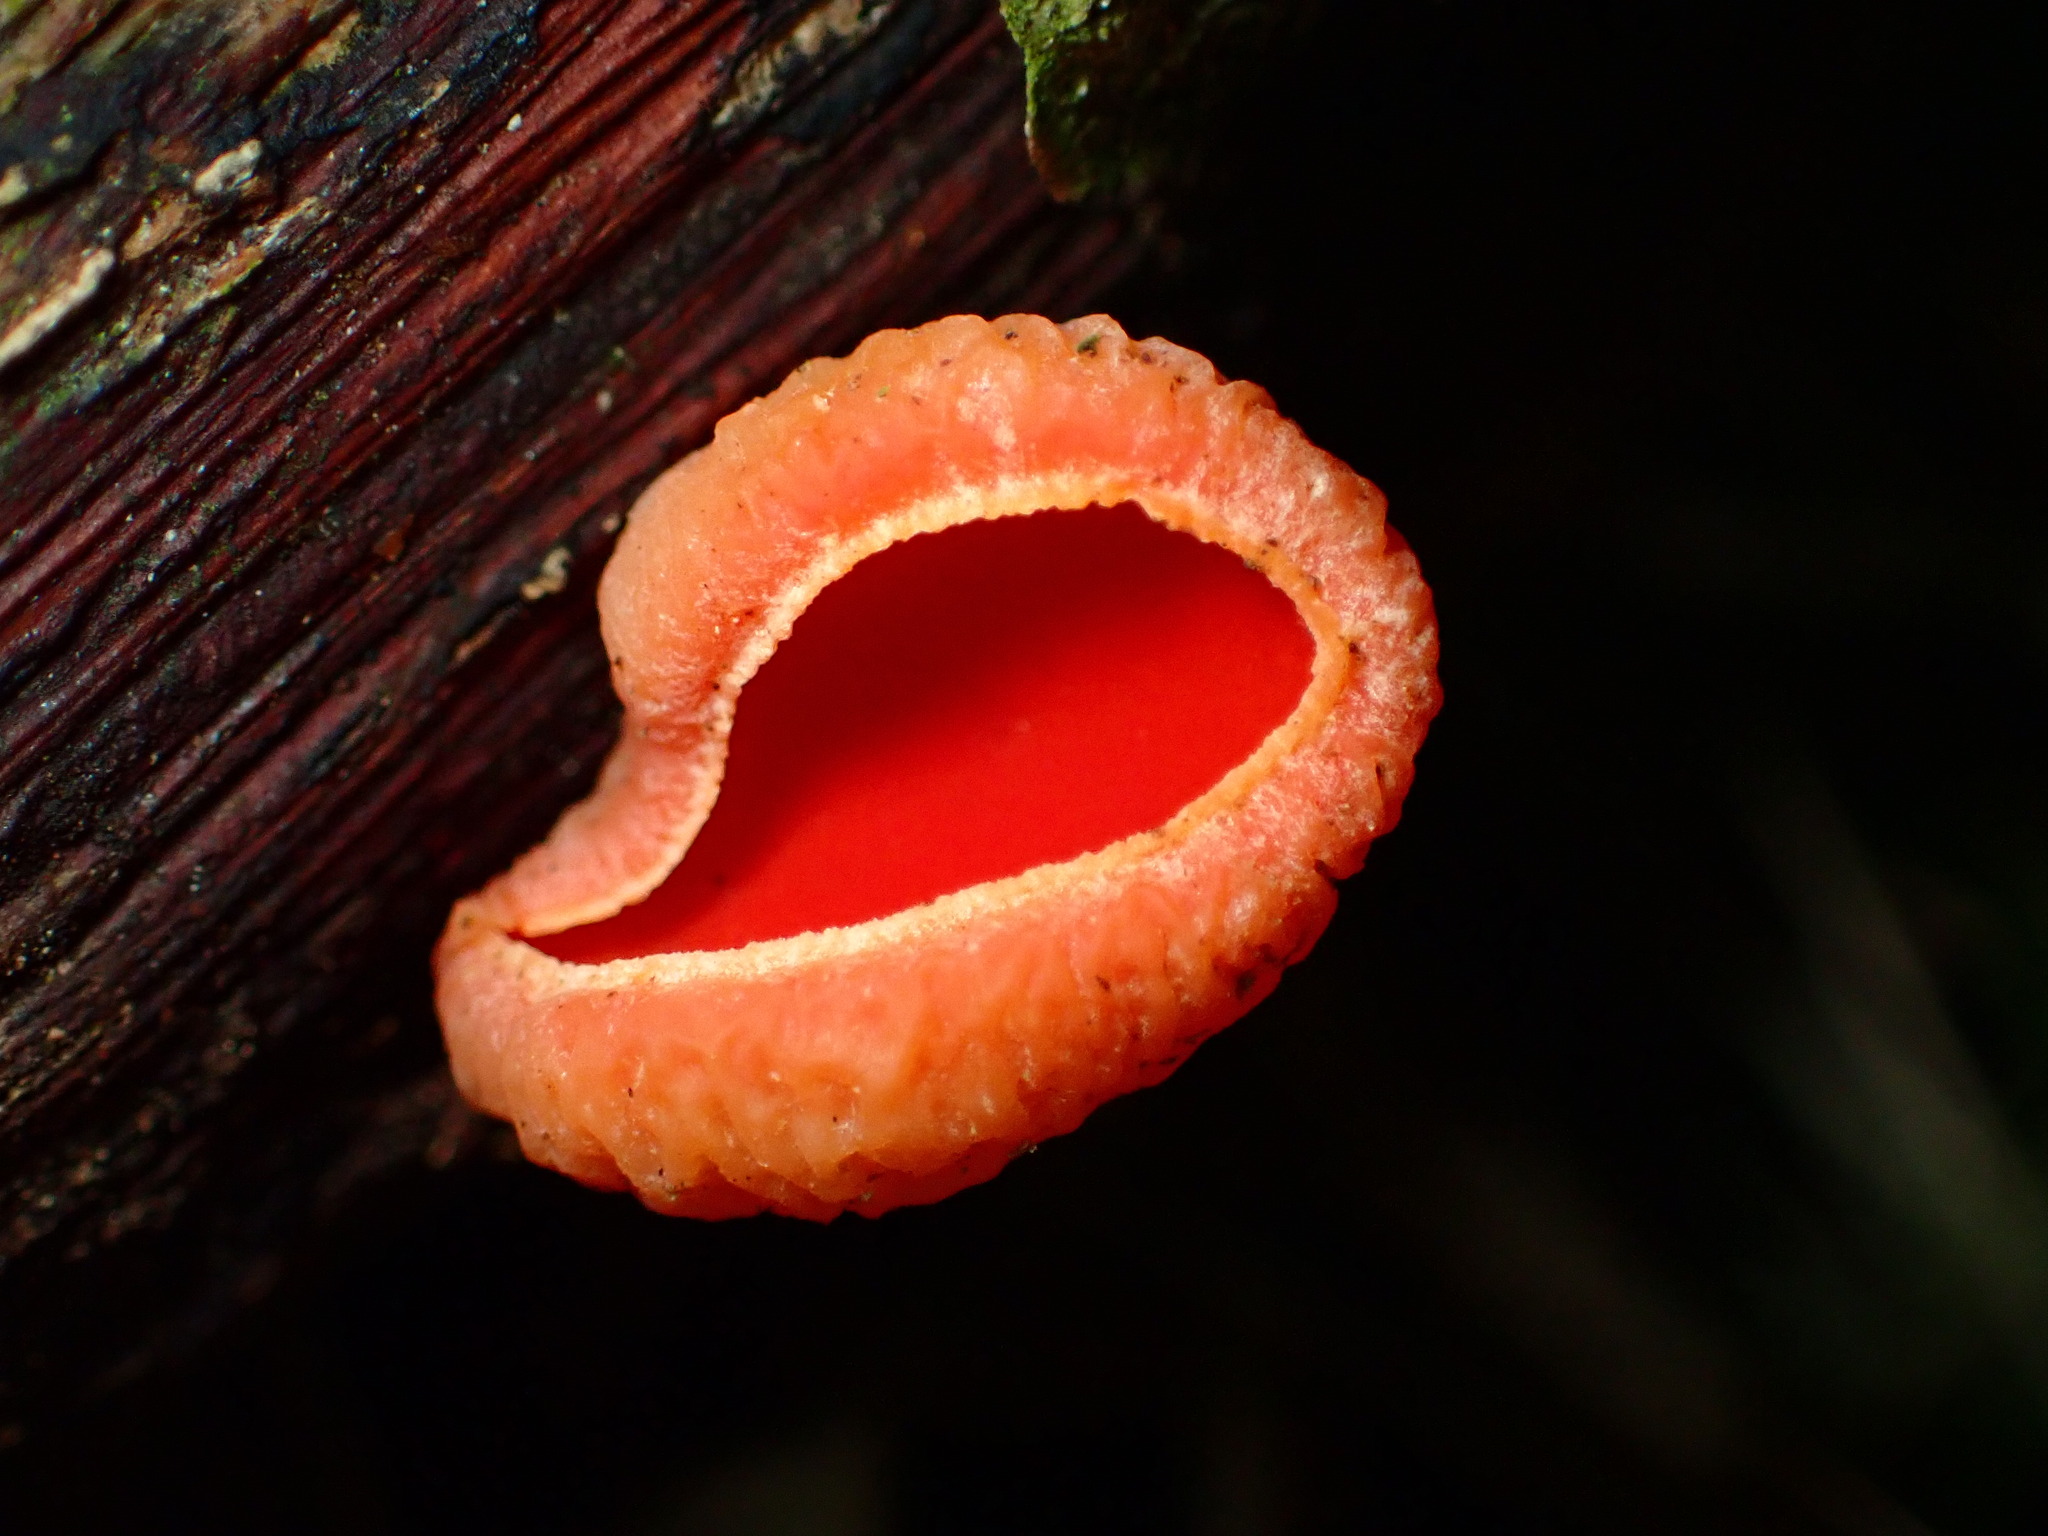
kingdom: Fungi
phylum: Ascomycota
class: Pezizomycetes
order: Pezizales
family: Sarcoscyphaceae
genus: Sarcoscypha
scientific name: Sarcoscypha coccinea
